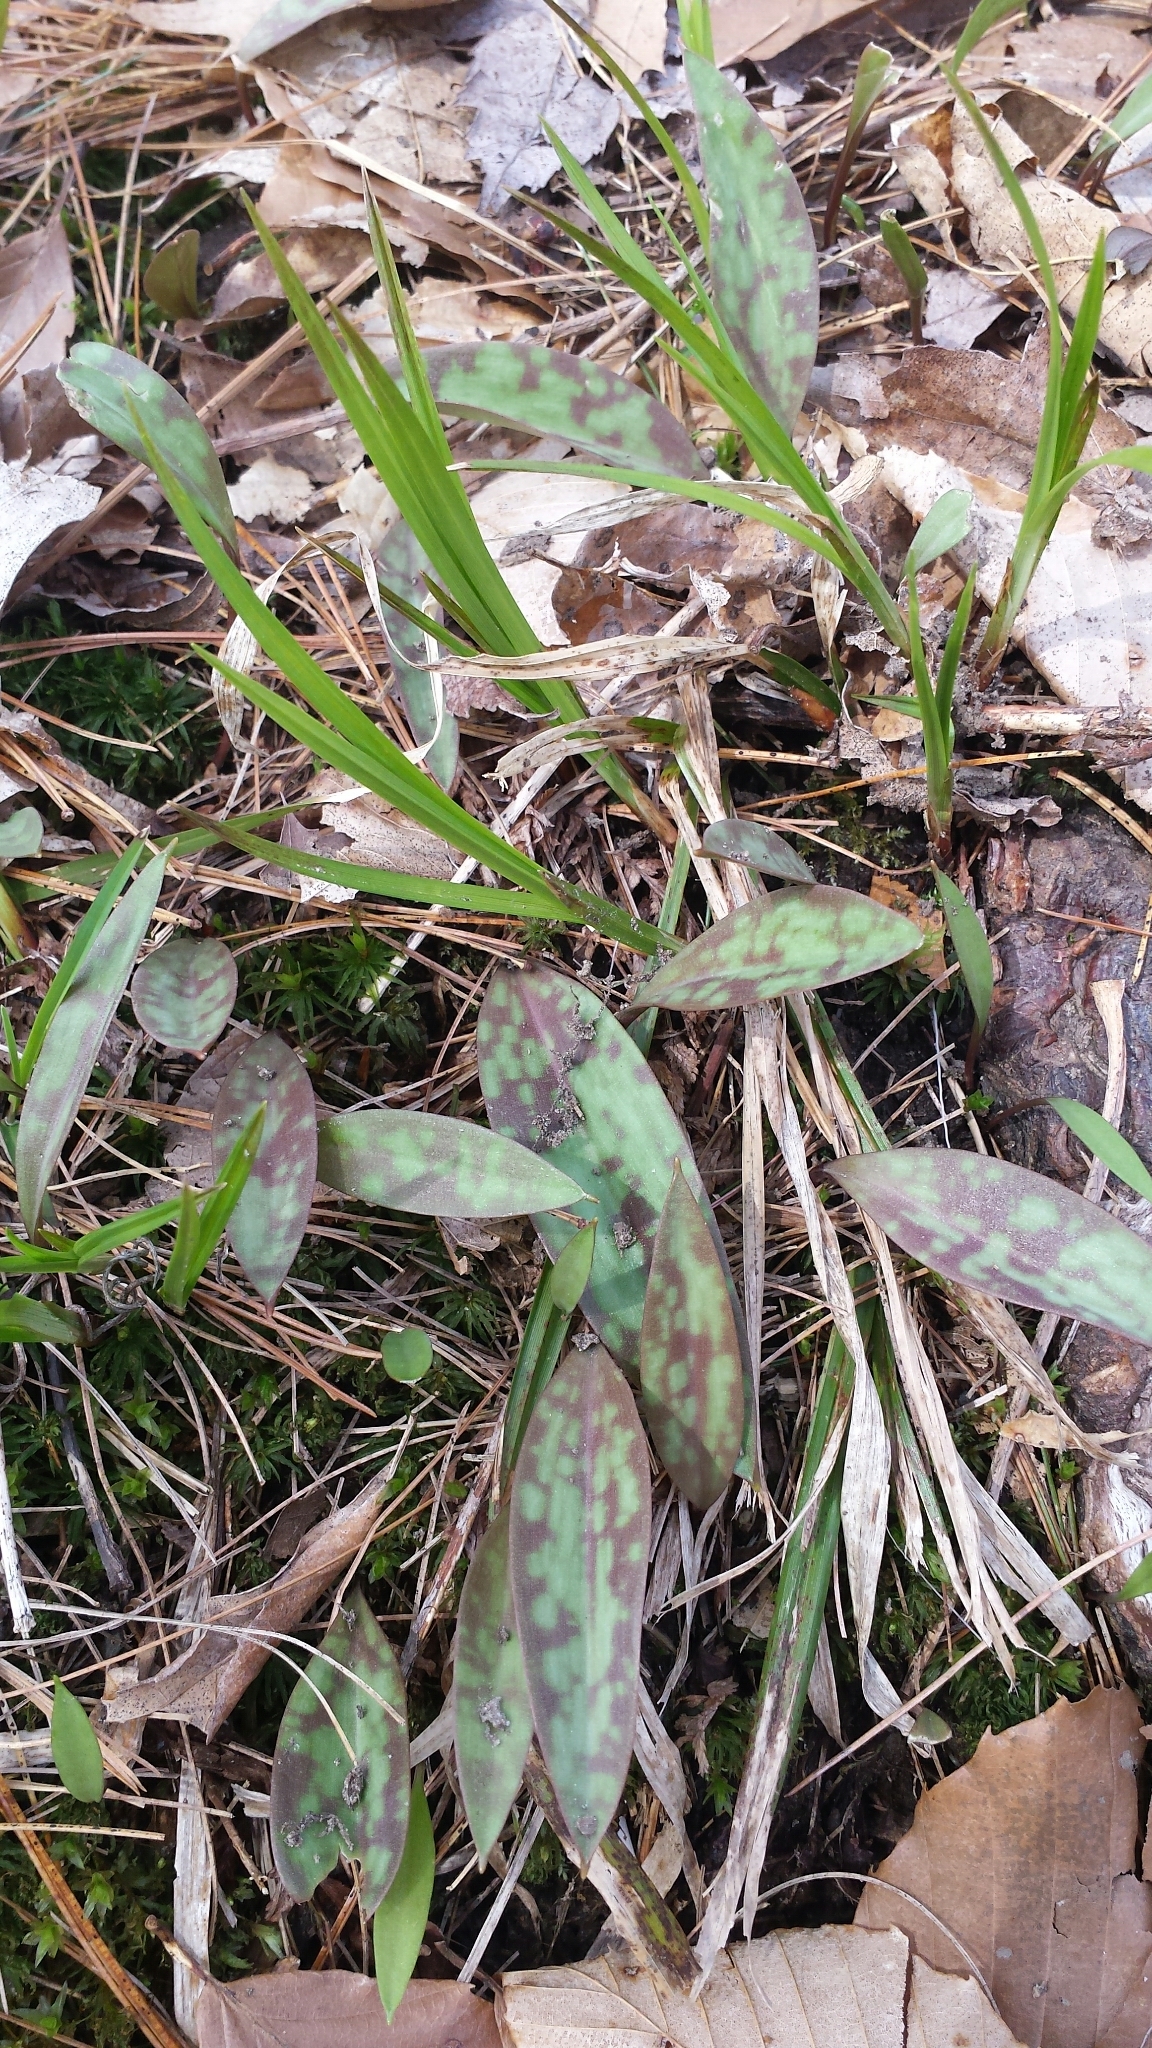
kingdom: Plantae
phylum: Tracheophyta
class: Liliopsida
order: Liliales
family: Liliaceae
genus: Erythronium
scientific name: Erythronium americanum
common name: Yellow adder's-tongue
